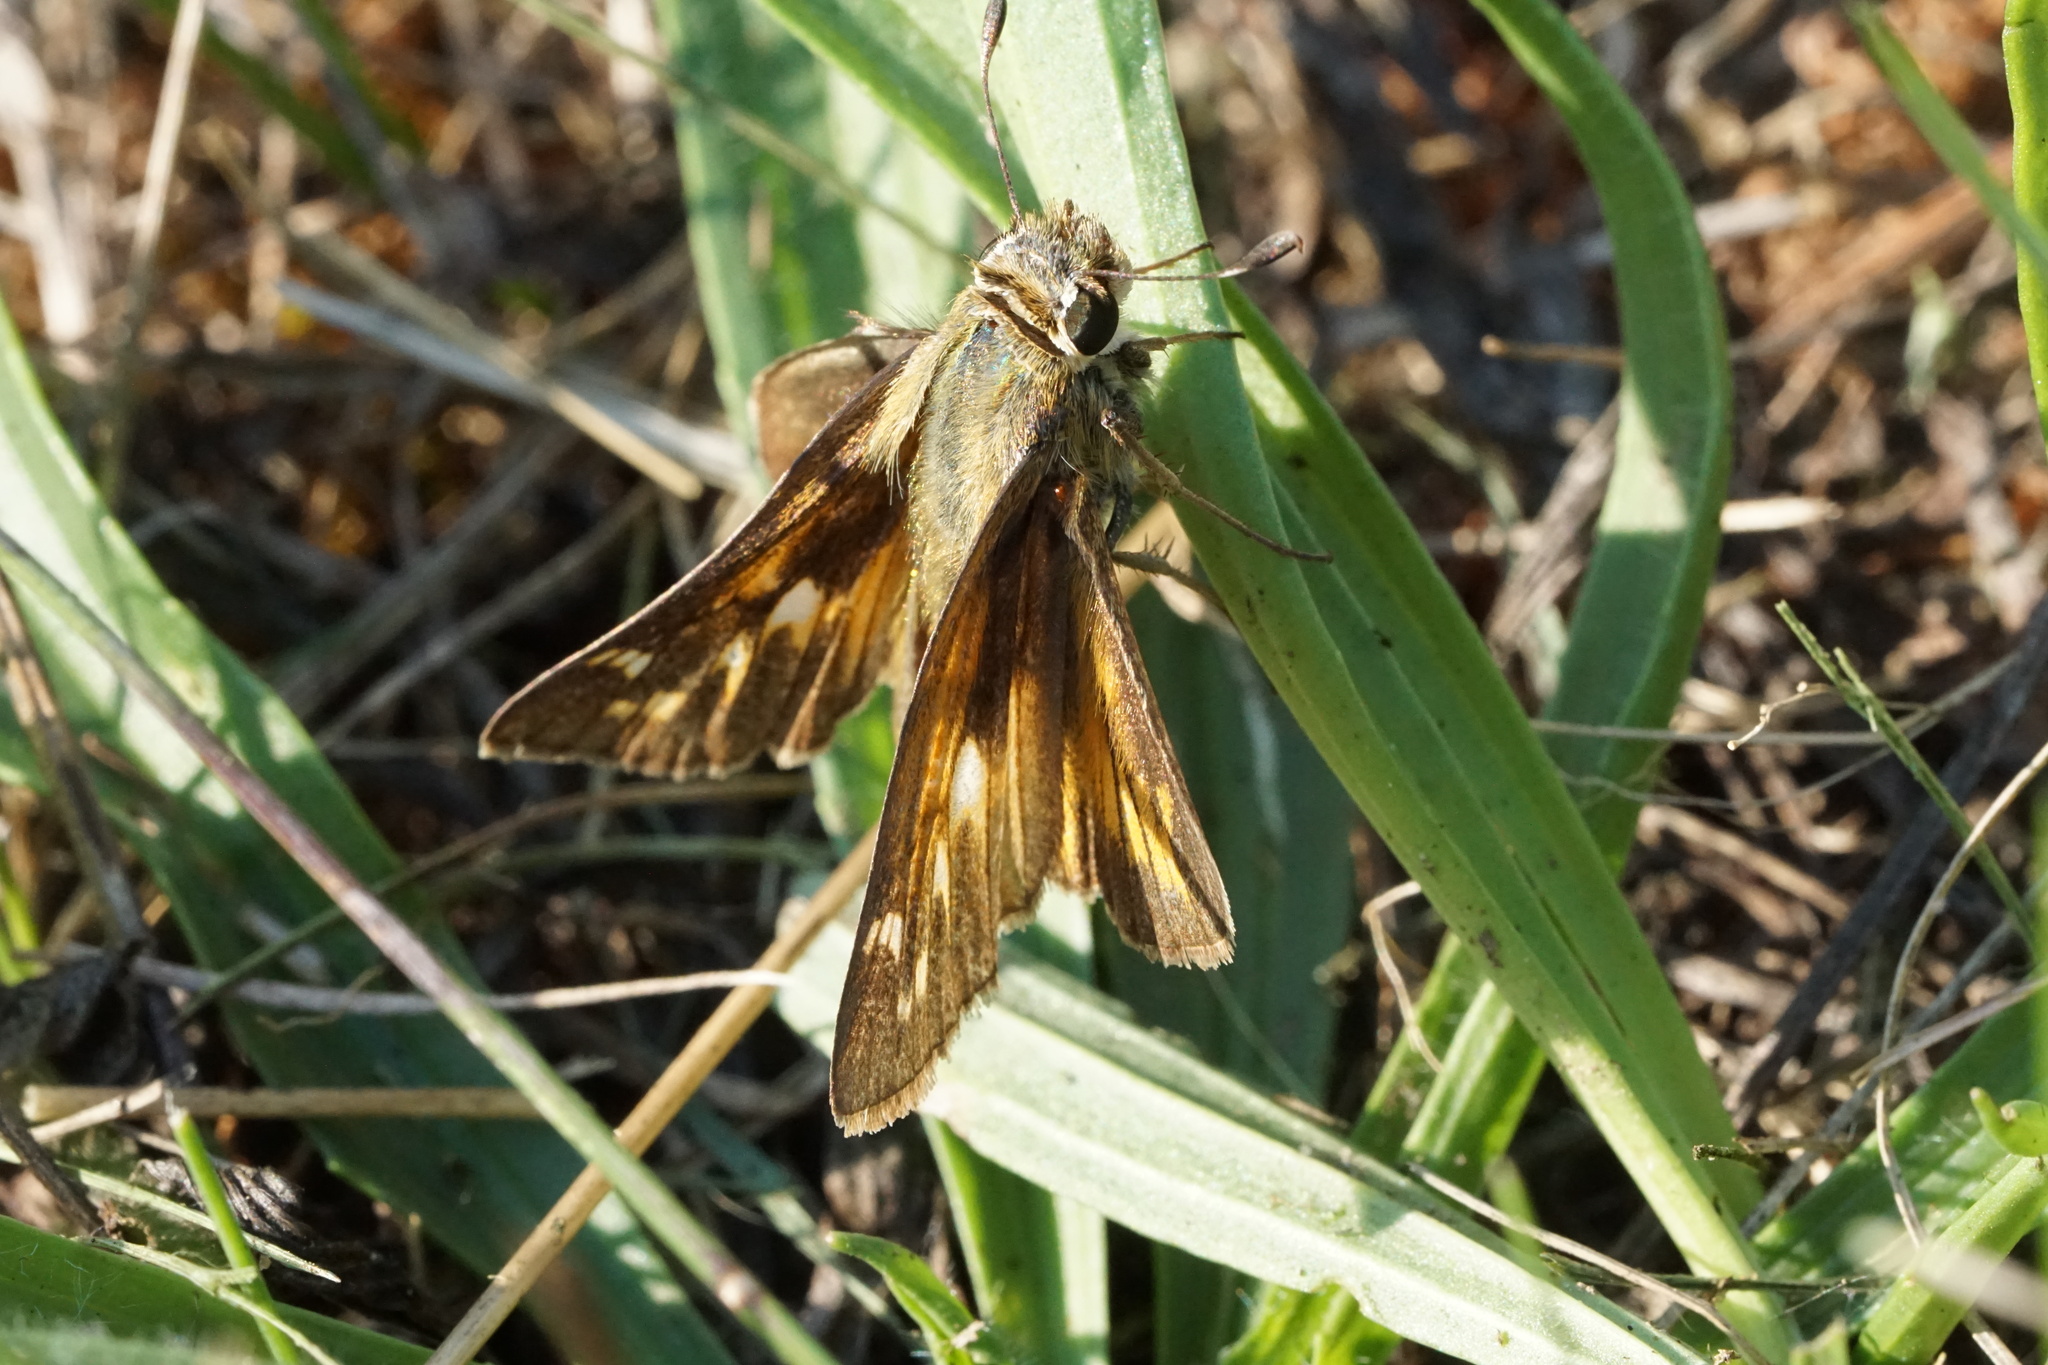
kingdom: Animalia
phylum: Arthropoda
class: Insecta
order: Lepidoptera
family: Hesperiidae
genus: Atalopedes
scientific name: Atalopedes
